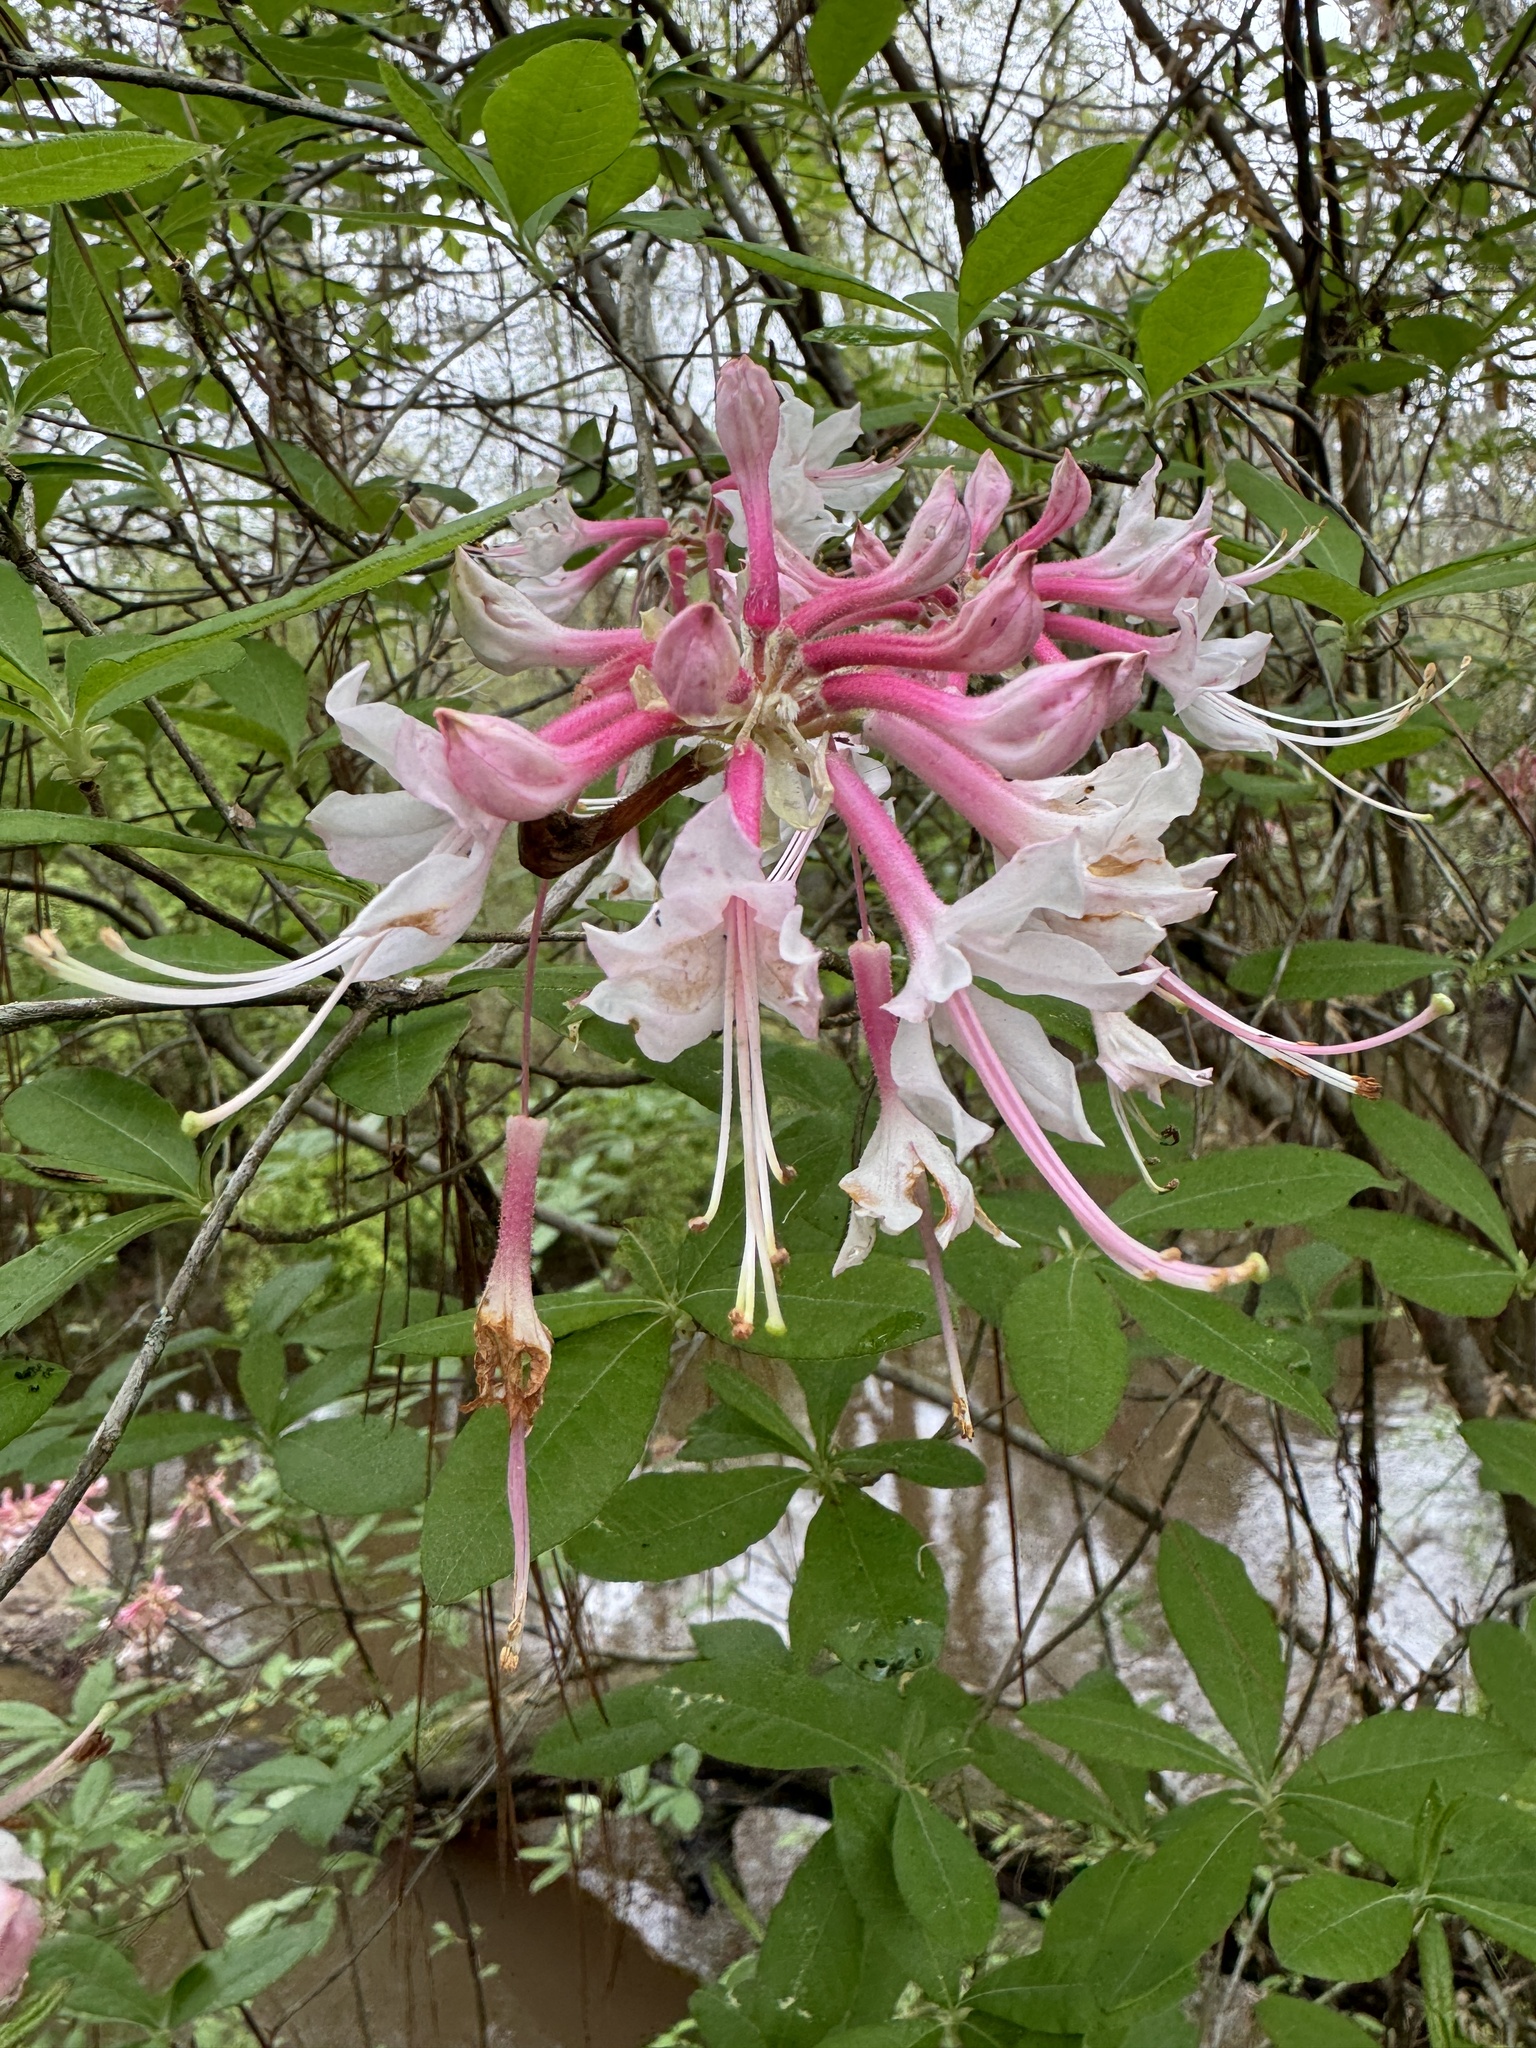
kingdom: Plantae
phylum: Tracheophyta
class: Magnoliopsida
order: Ericales
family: Ericaceae
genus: Rhododendron
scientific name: Rhododendron canescens
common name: Mountain azalea
